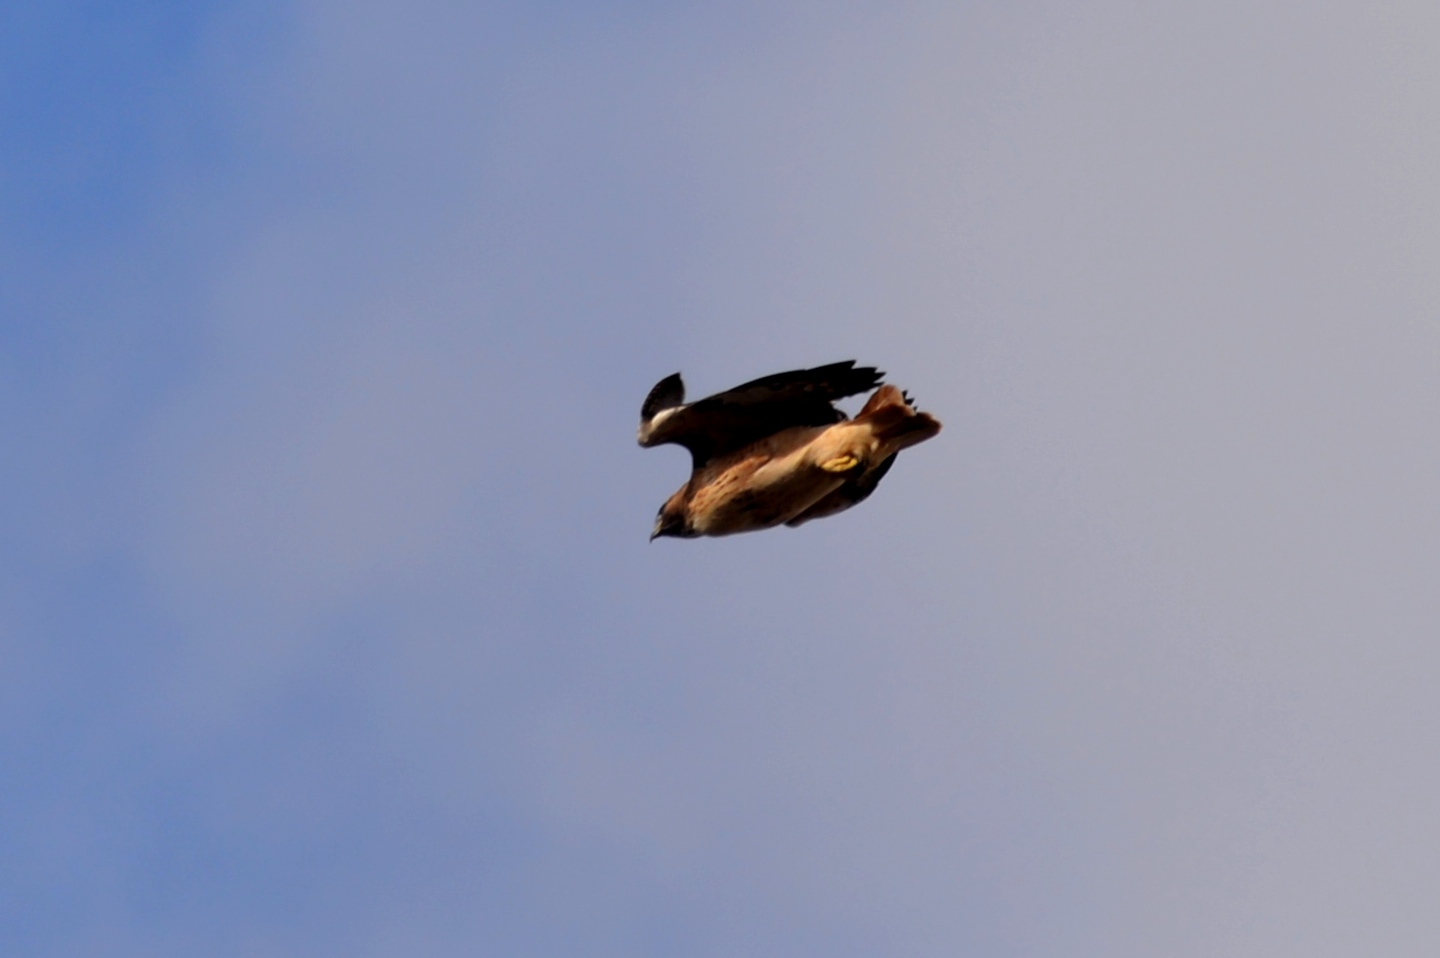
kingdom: Animalia
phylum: Chordata
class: Aves
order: Accipitriformes
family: Accipitridae
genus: Buteo
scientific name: Buteo jamaicensis
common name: Red-tailed hawk
